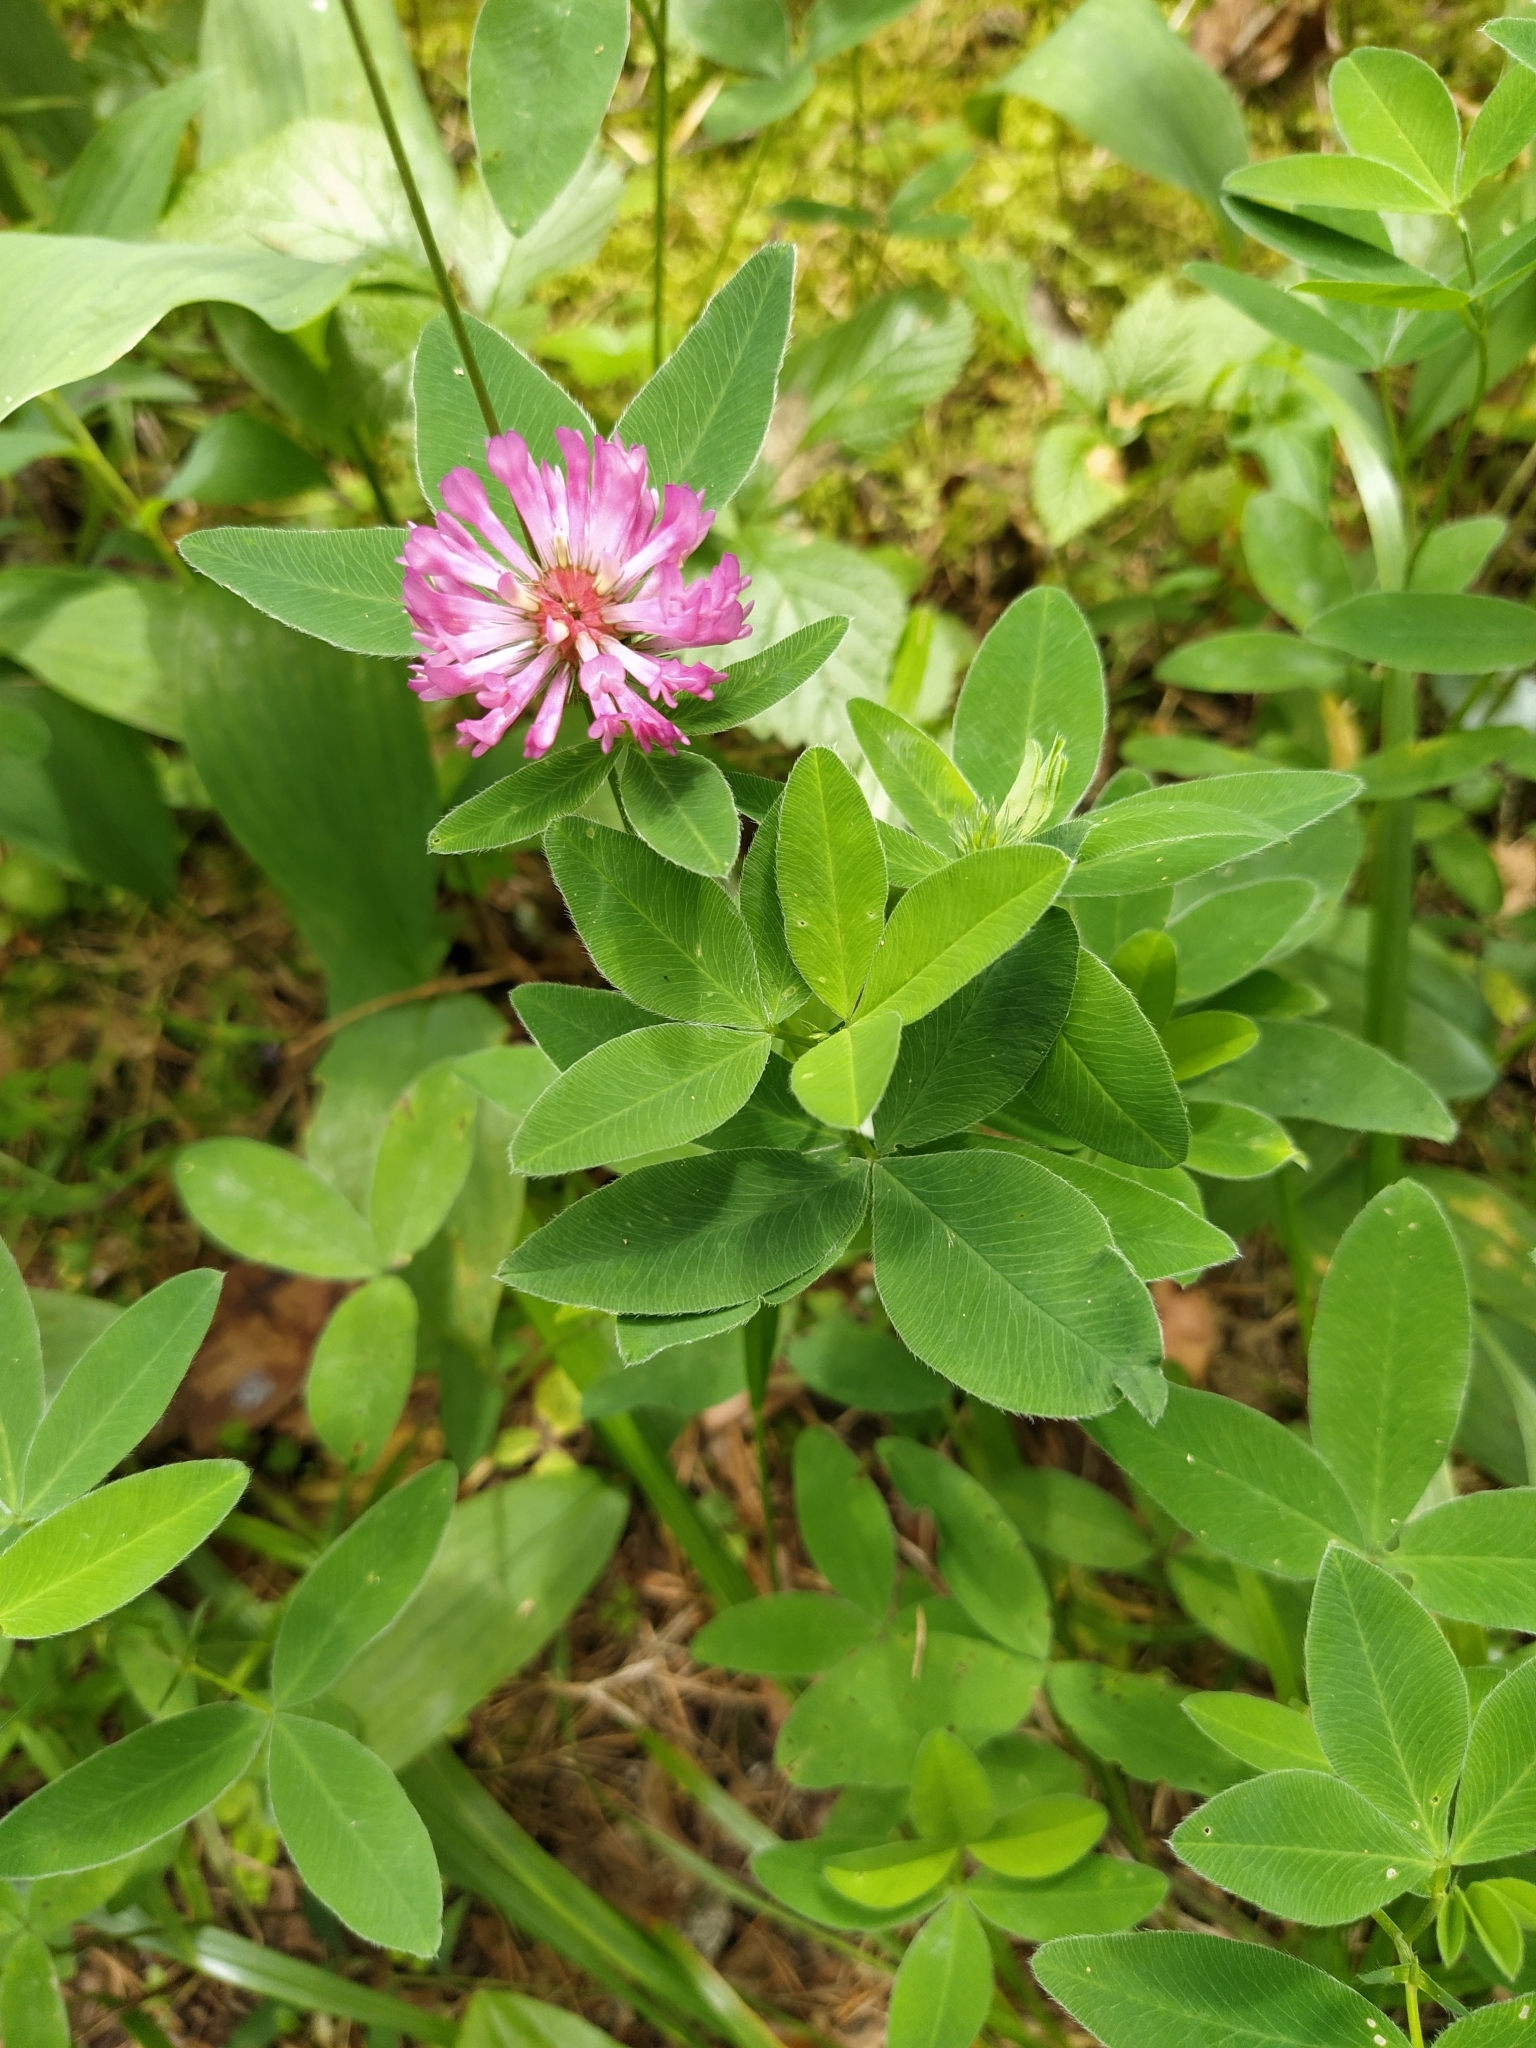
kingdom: Plantae
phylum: Tracheophyta
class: Magnoliopsida
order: Fabales
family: Fabaceae
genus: Trifolium
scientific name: Trifolium medium
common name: Zigzag clover
